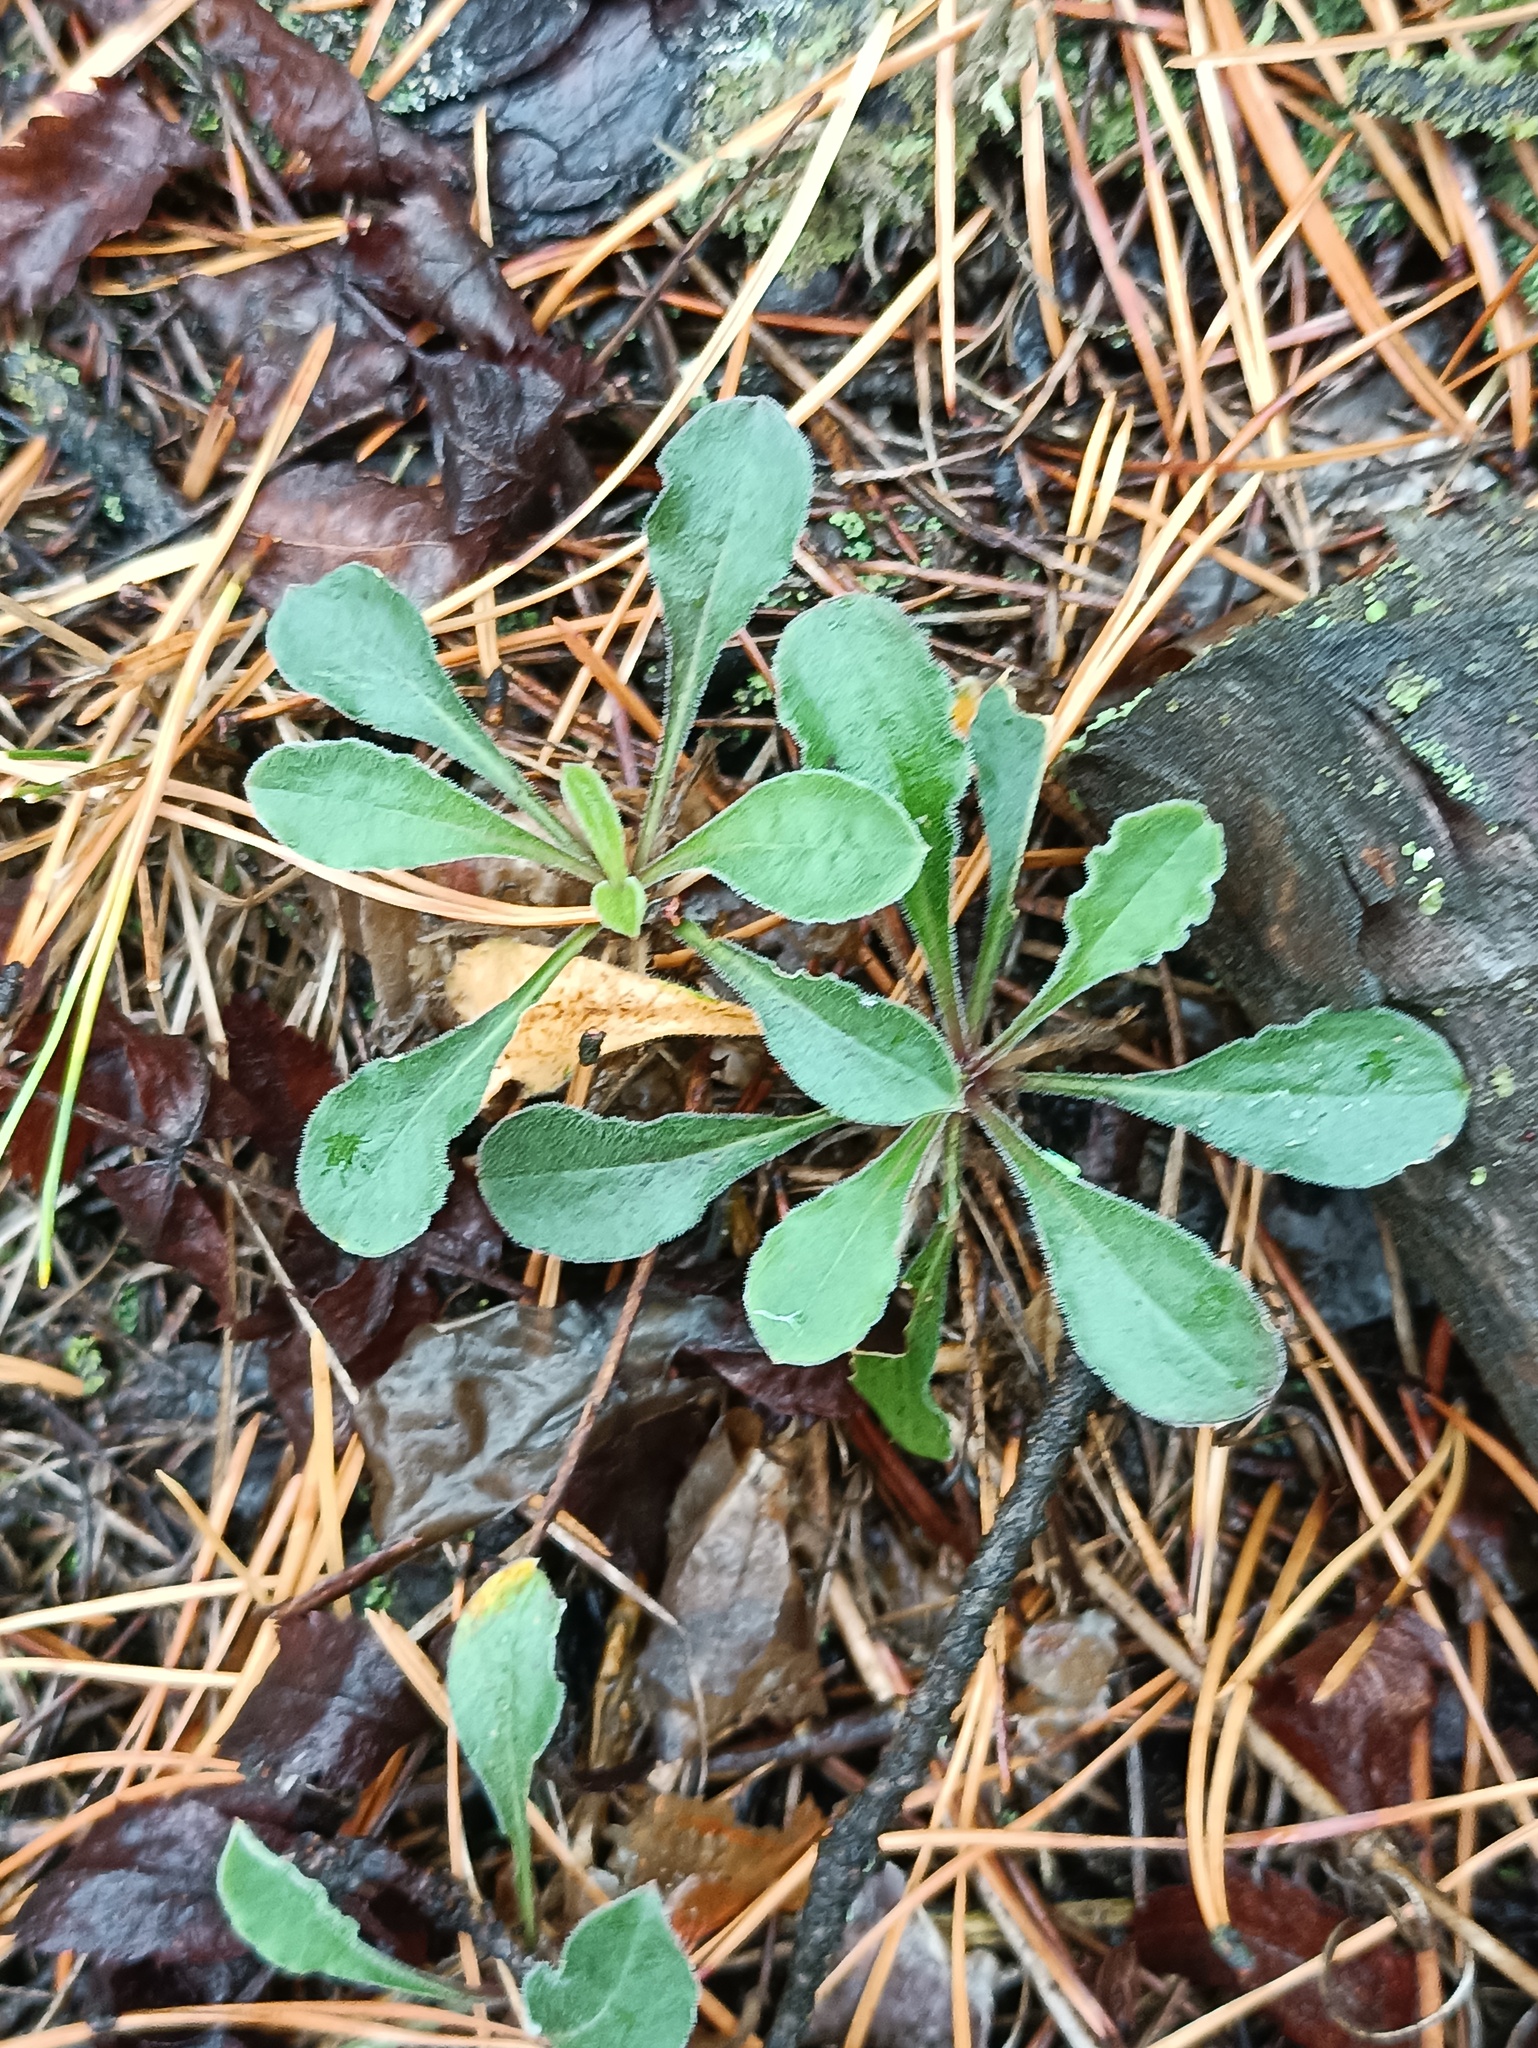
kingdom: Plantae
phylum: Tracheophyta
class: Magnoliopsida
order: Caryophyllales
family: Caryophyllaceae
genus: Silene
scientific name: Silene nutans
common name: Nottingham catchfly
